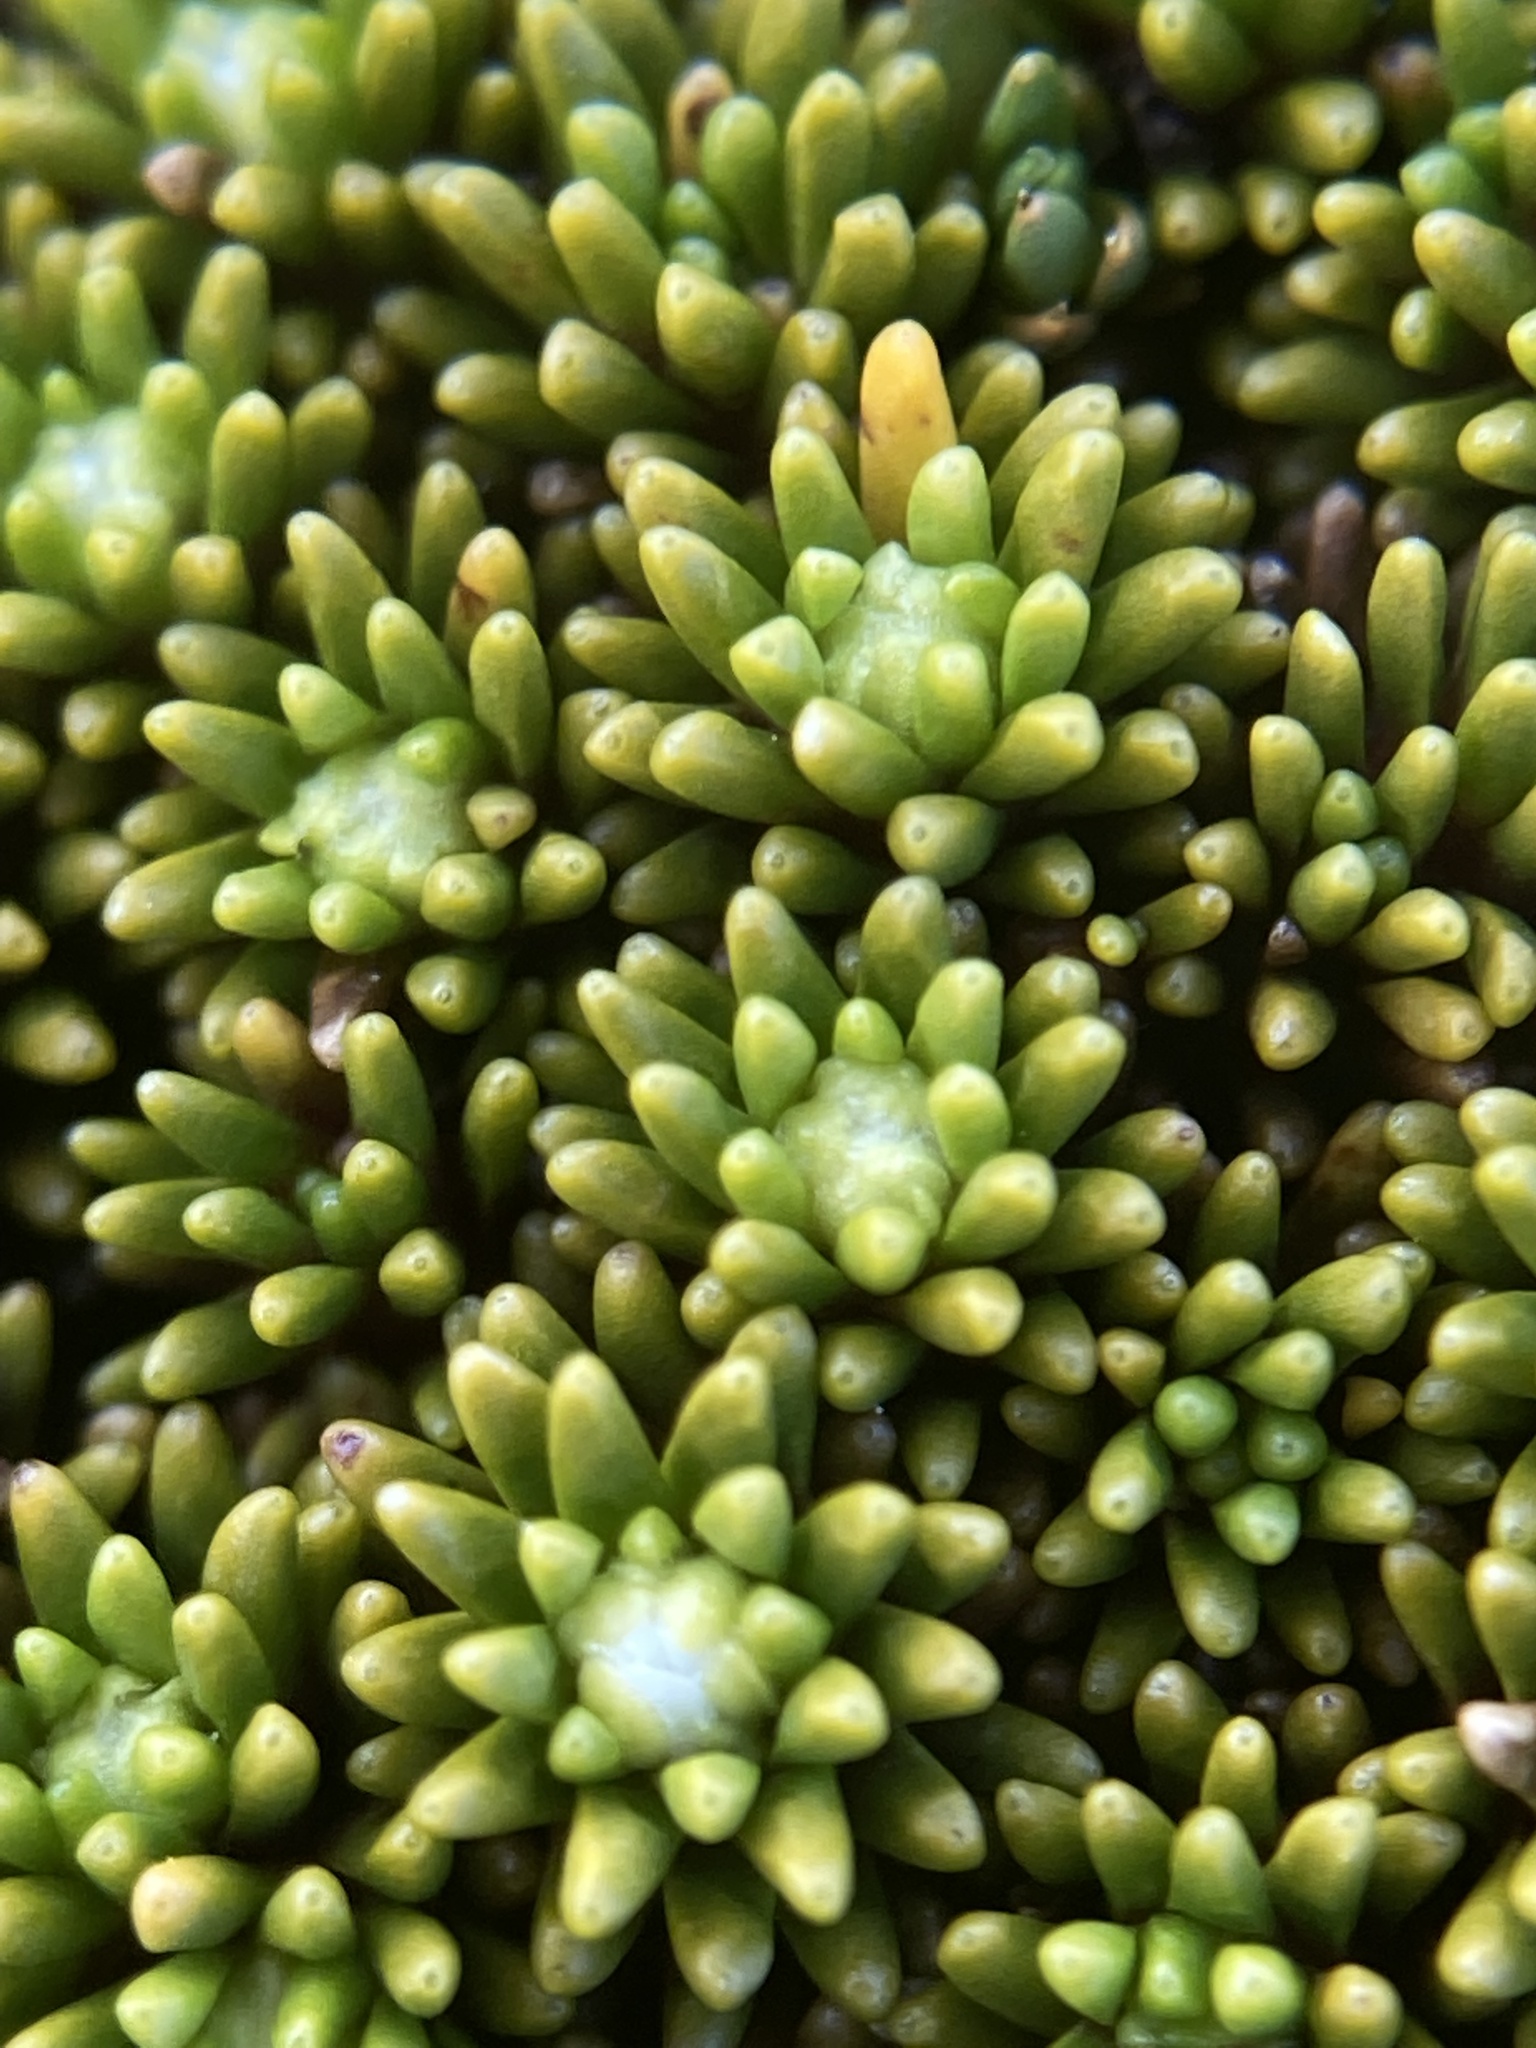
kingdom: Plantae
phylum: Tracheophyta
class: Magnoliopsida
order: Asterales
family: Stylidiaceae
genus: Phyllachne
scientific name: Phyllachne colensoi
